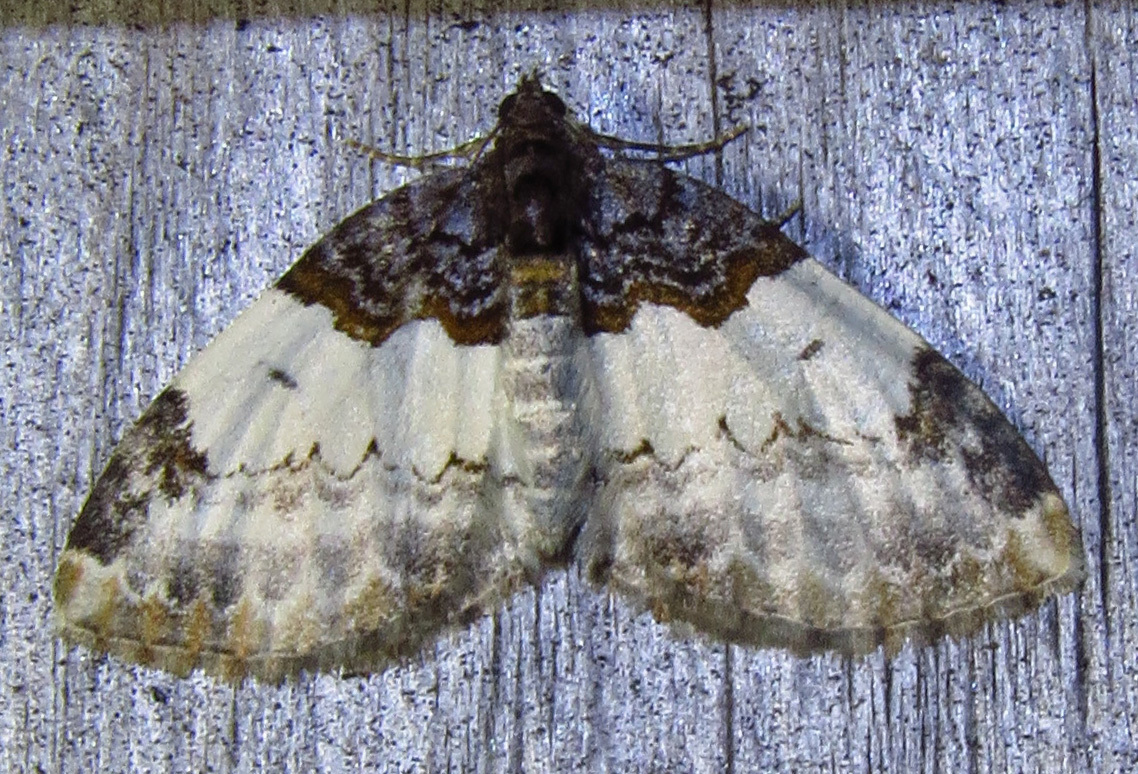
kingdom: Animalia
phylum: Arthropoda
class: Insecta
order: Lepidoptera
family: Geometridae
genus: Mesoleuca
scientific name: Mesoleuca ruficillata
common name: White-ribboned carpet moth
